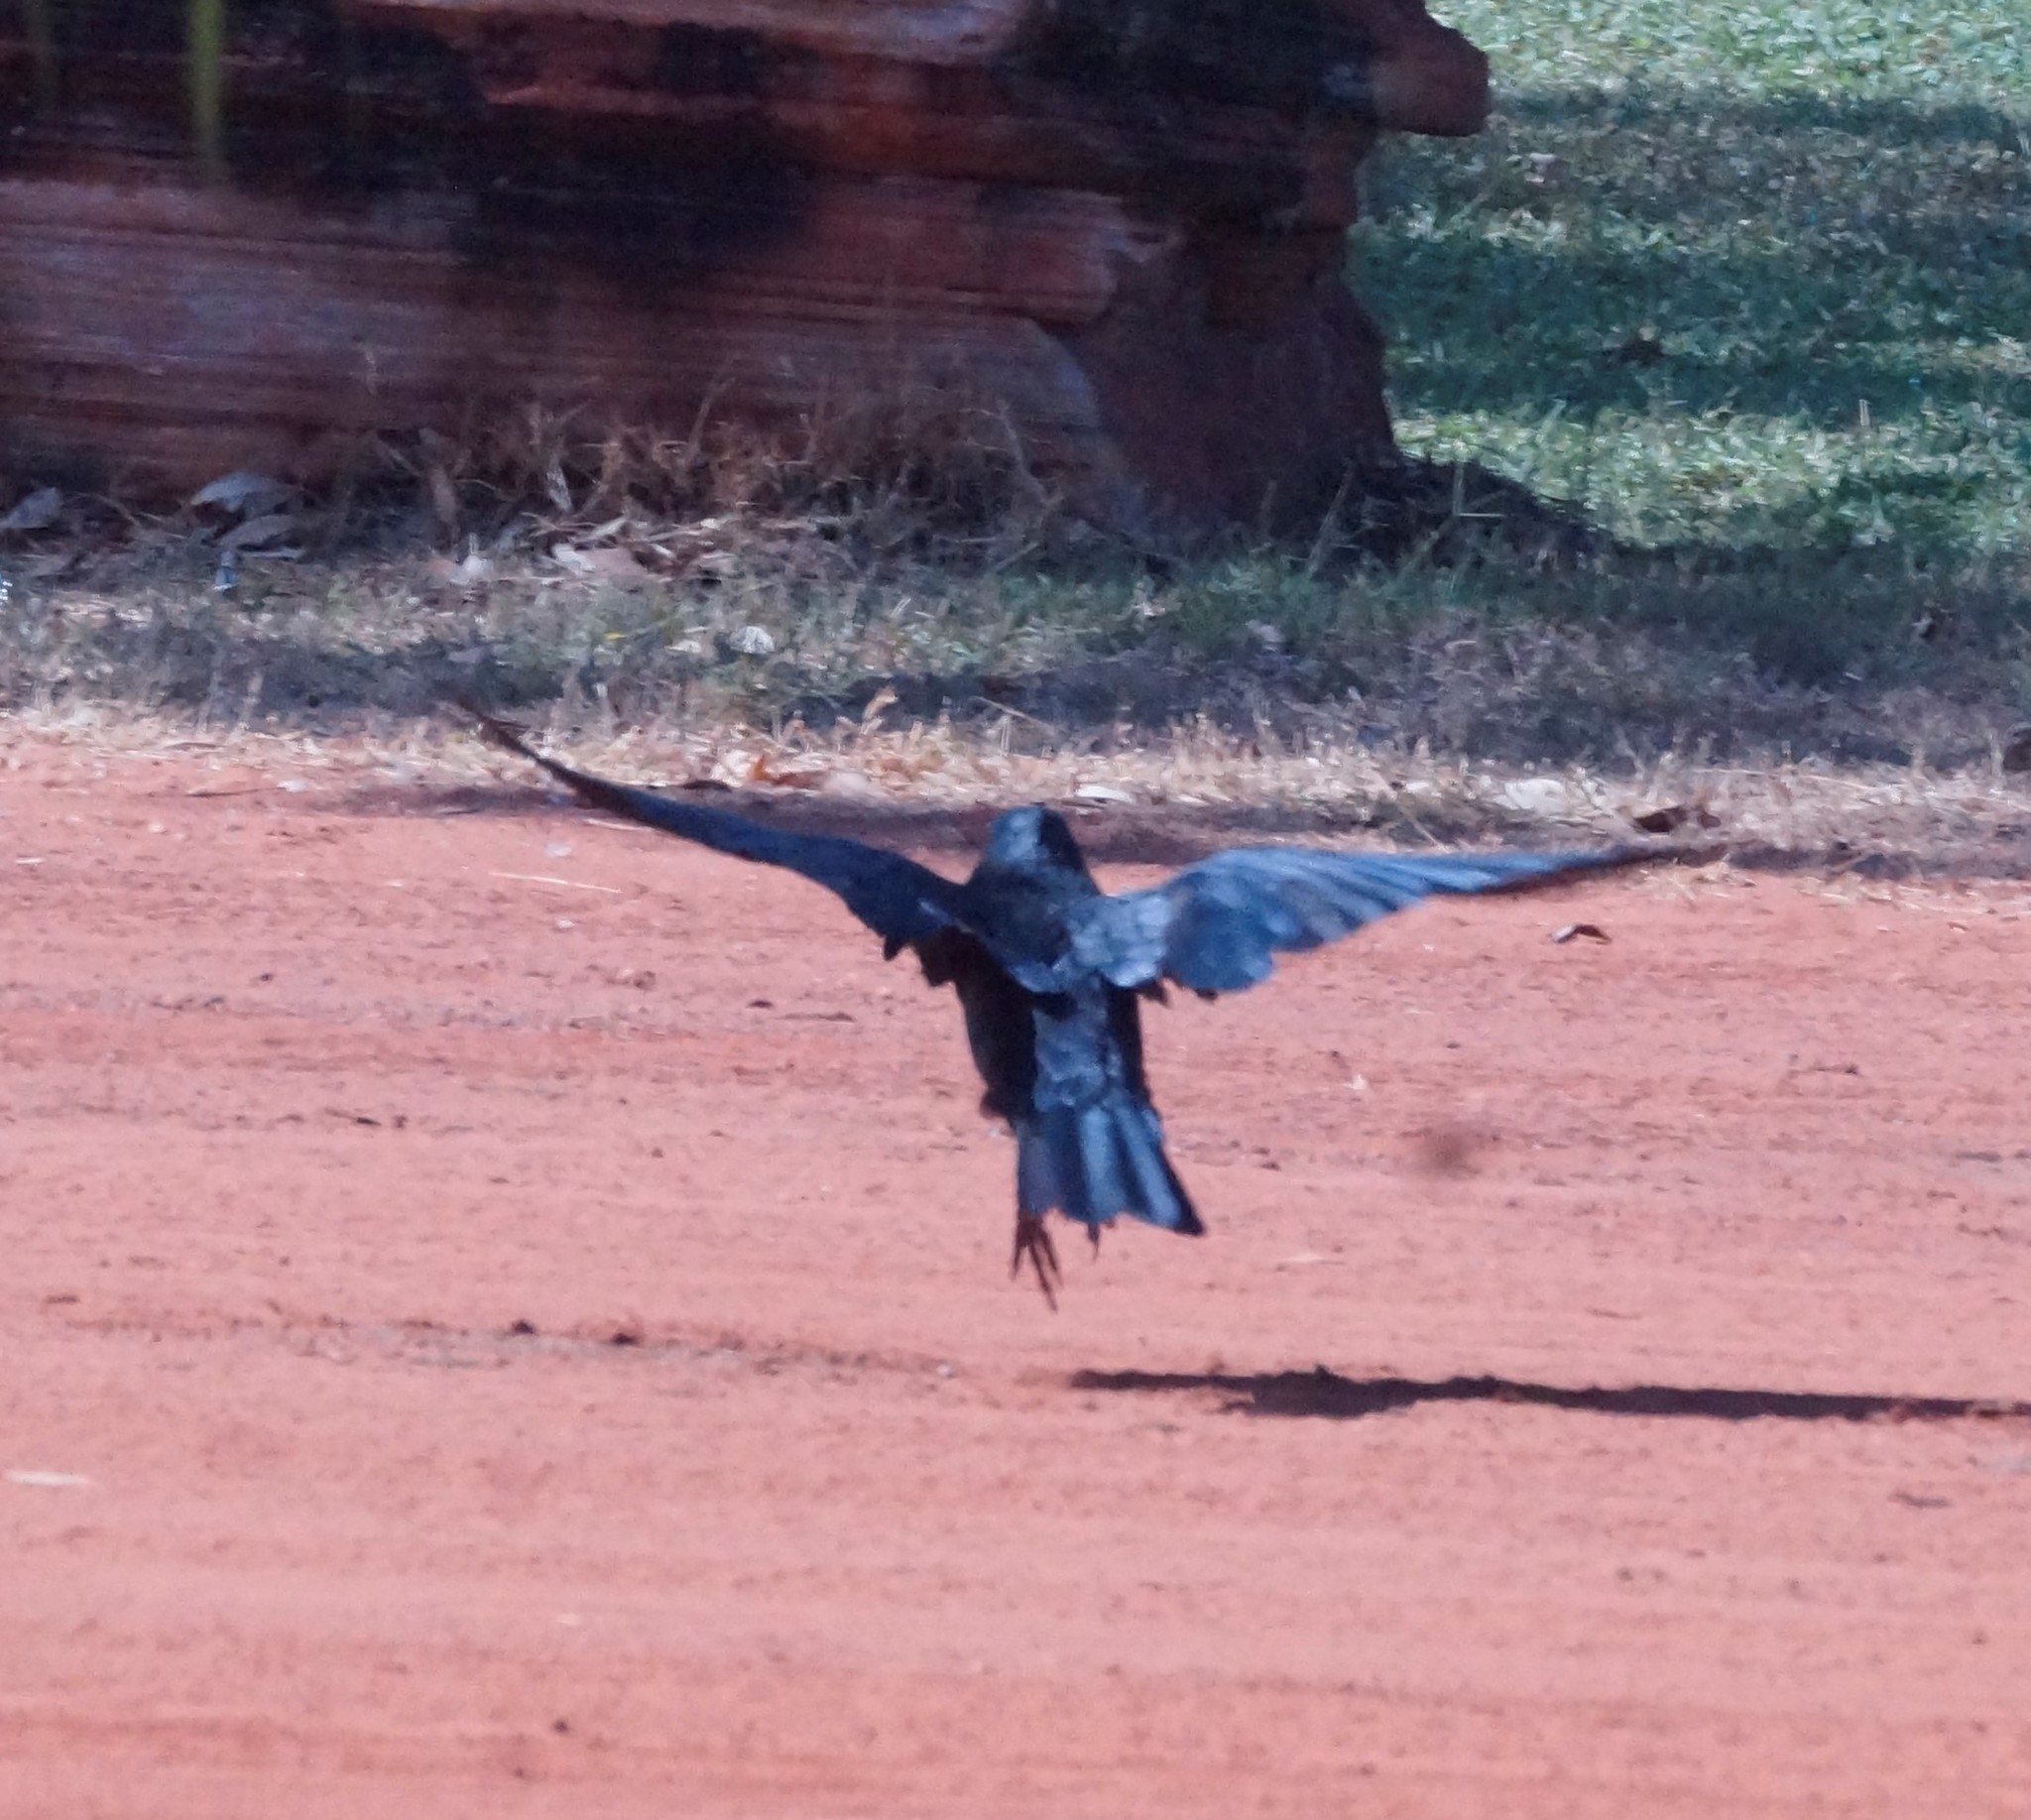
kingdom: Animalia
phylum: Chordata
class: Aves
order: Passeriformes
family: Corvidae
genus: Corvus
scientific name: Corvus orru
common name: Torresian crow
